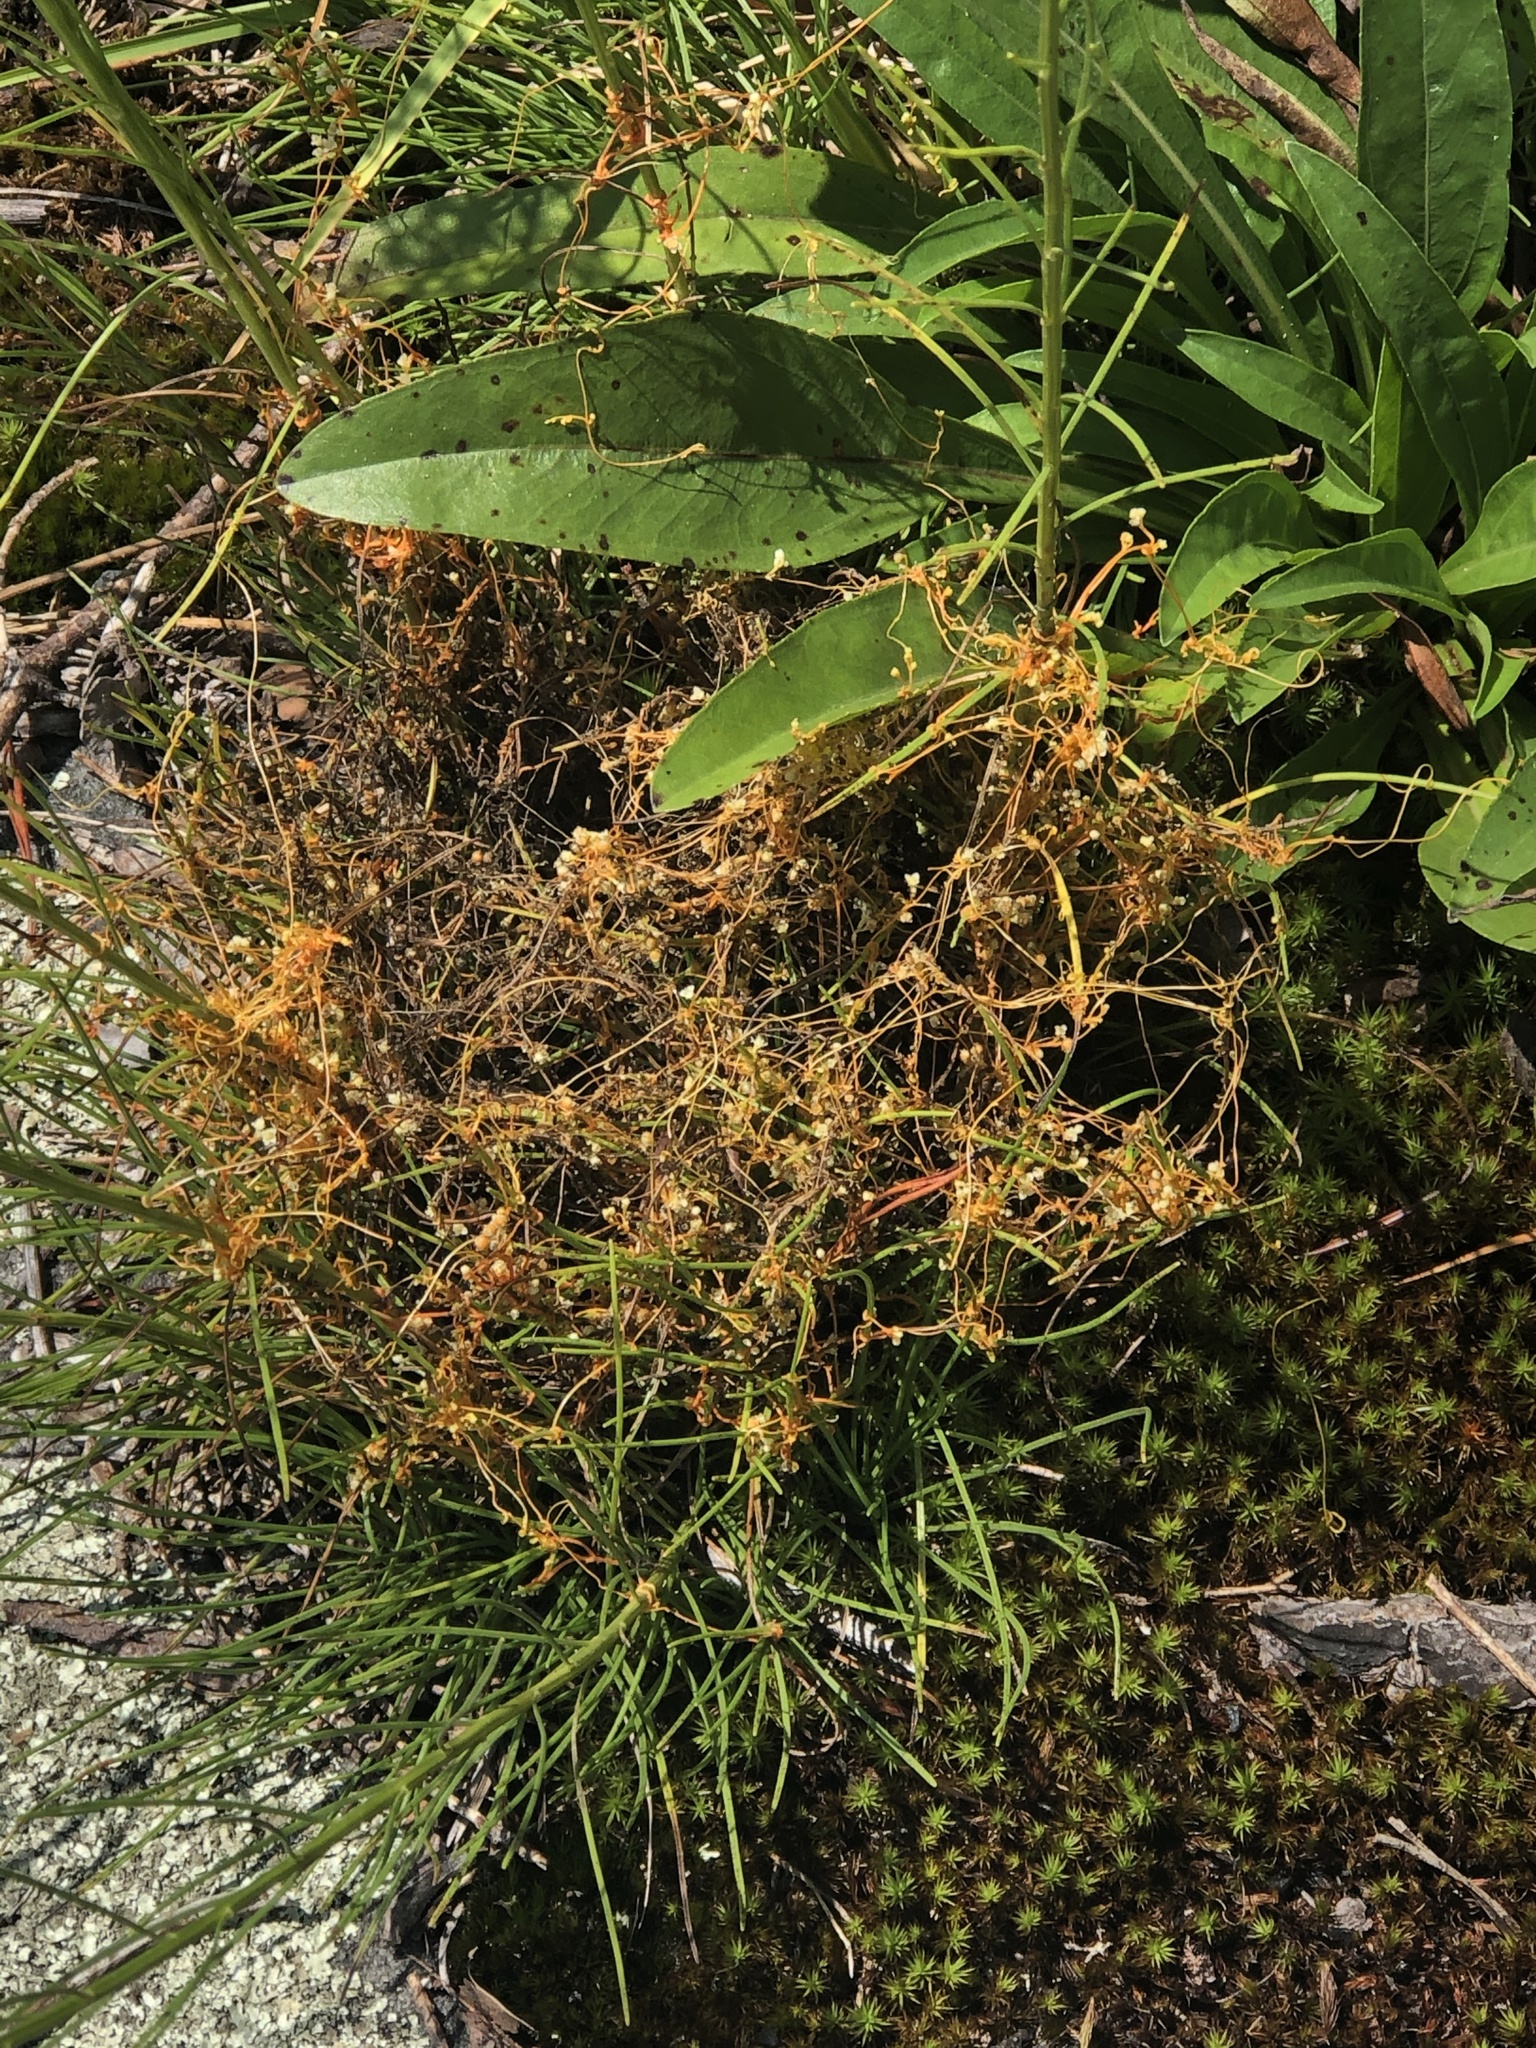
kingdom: Plantae
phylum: Tracheophyta
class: Magnoliopsida
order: Solanales
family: Convolvulaceae
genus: Cuscuta
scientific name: Cuscuta harperi
